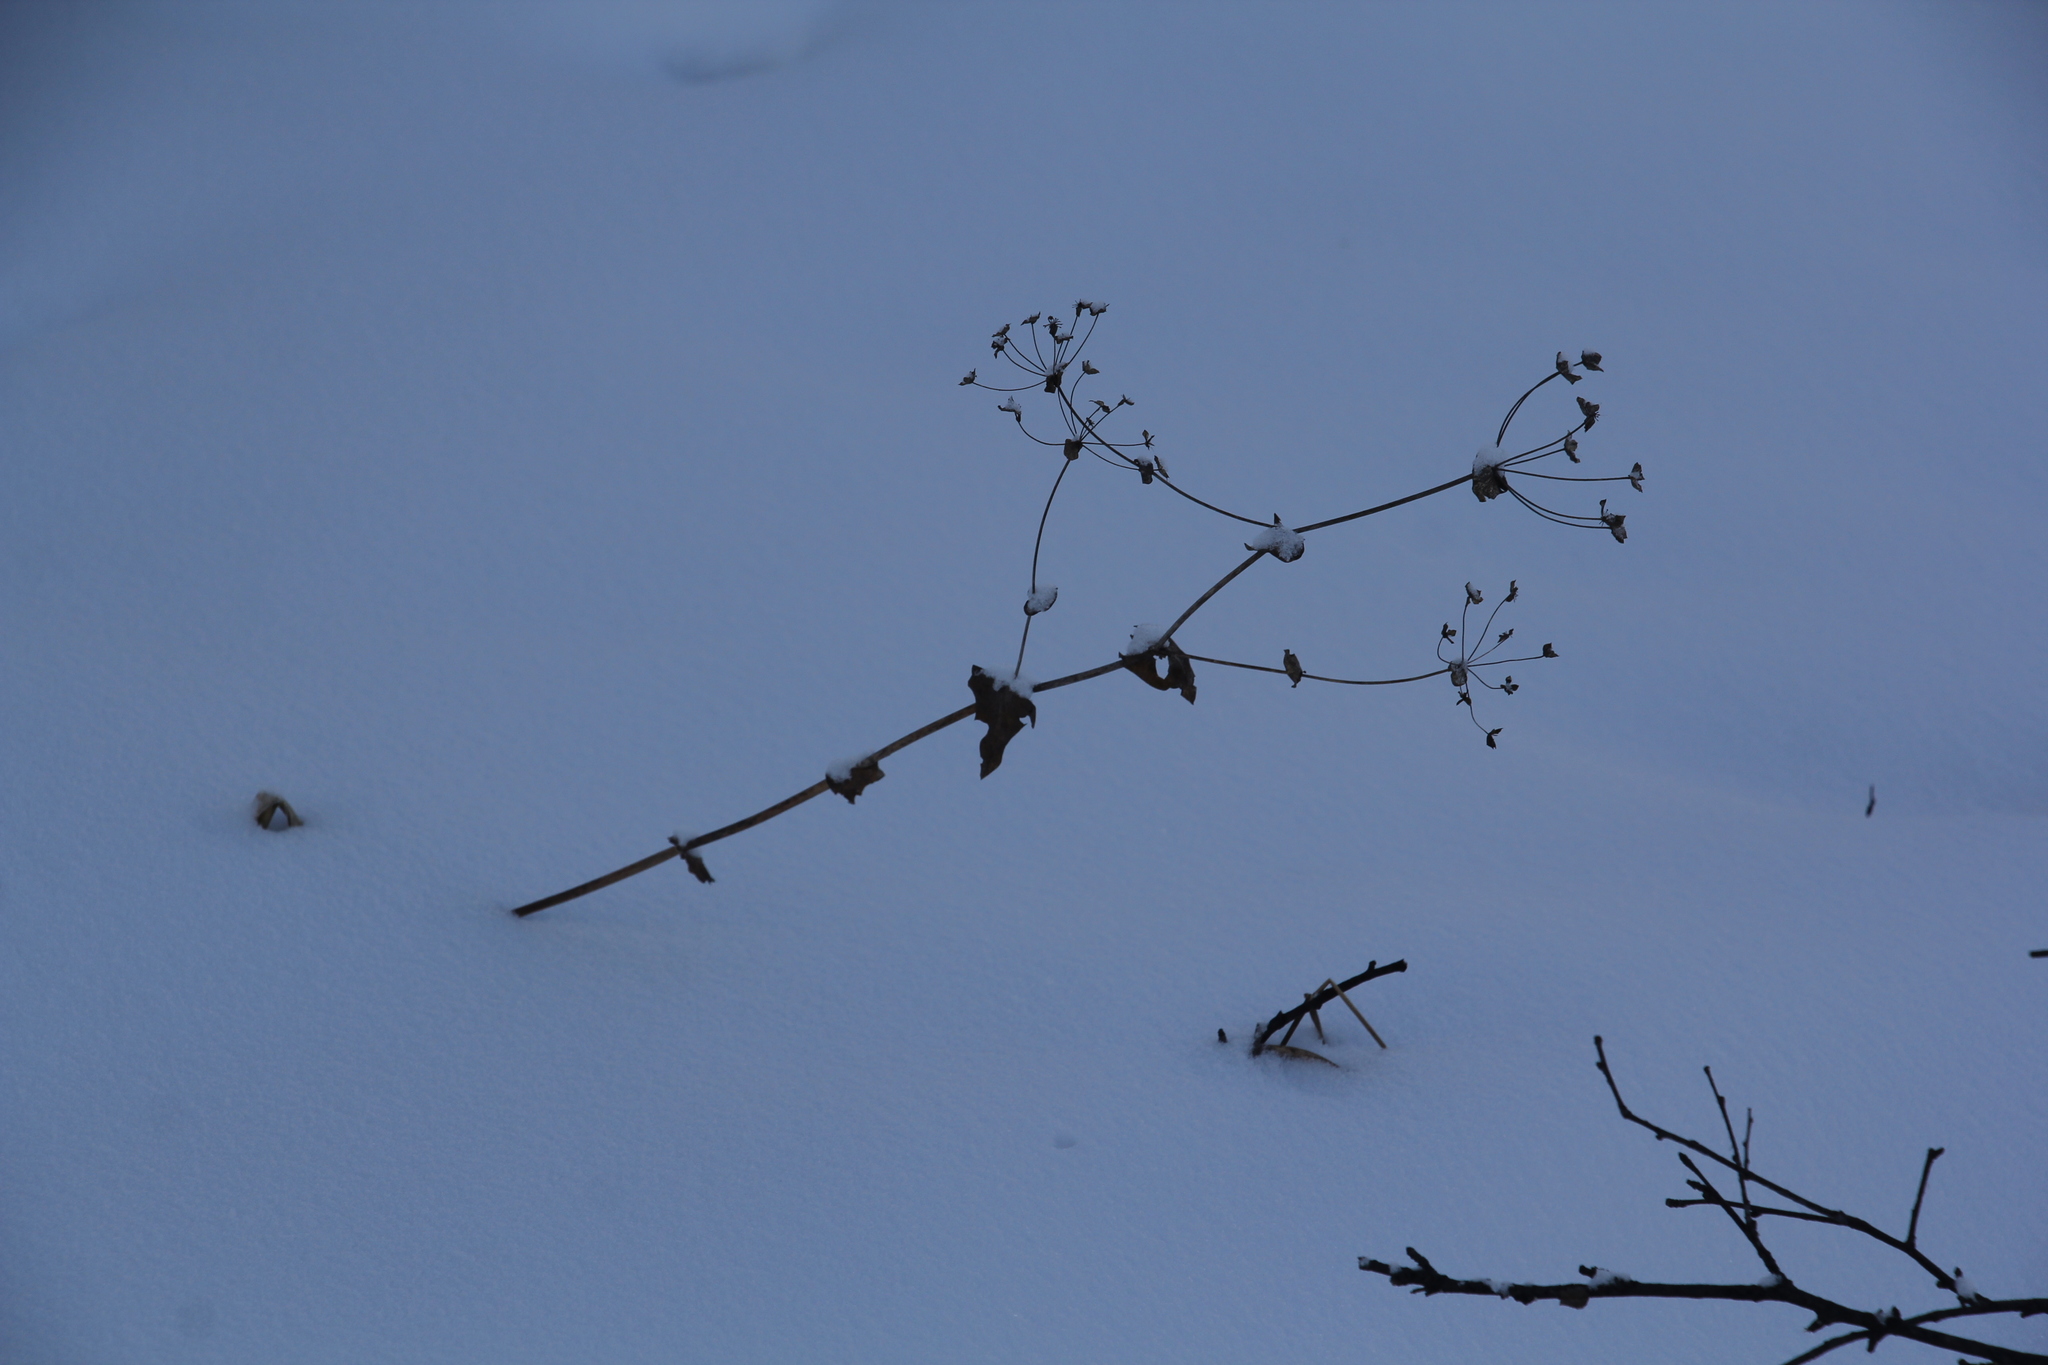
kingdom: Plantae
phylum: Tracheophyta
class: Magnoliopsida
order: Apiales
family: Apiaceae
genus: Bupleurum
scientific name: Bupleurum aureum
